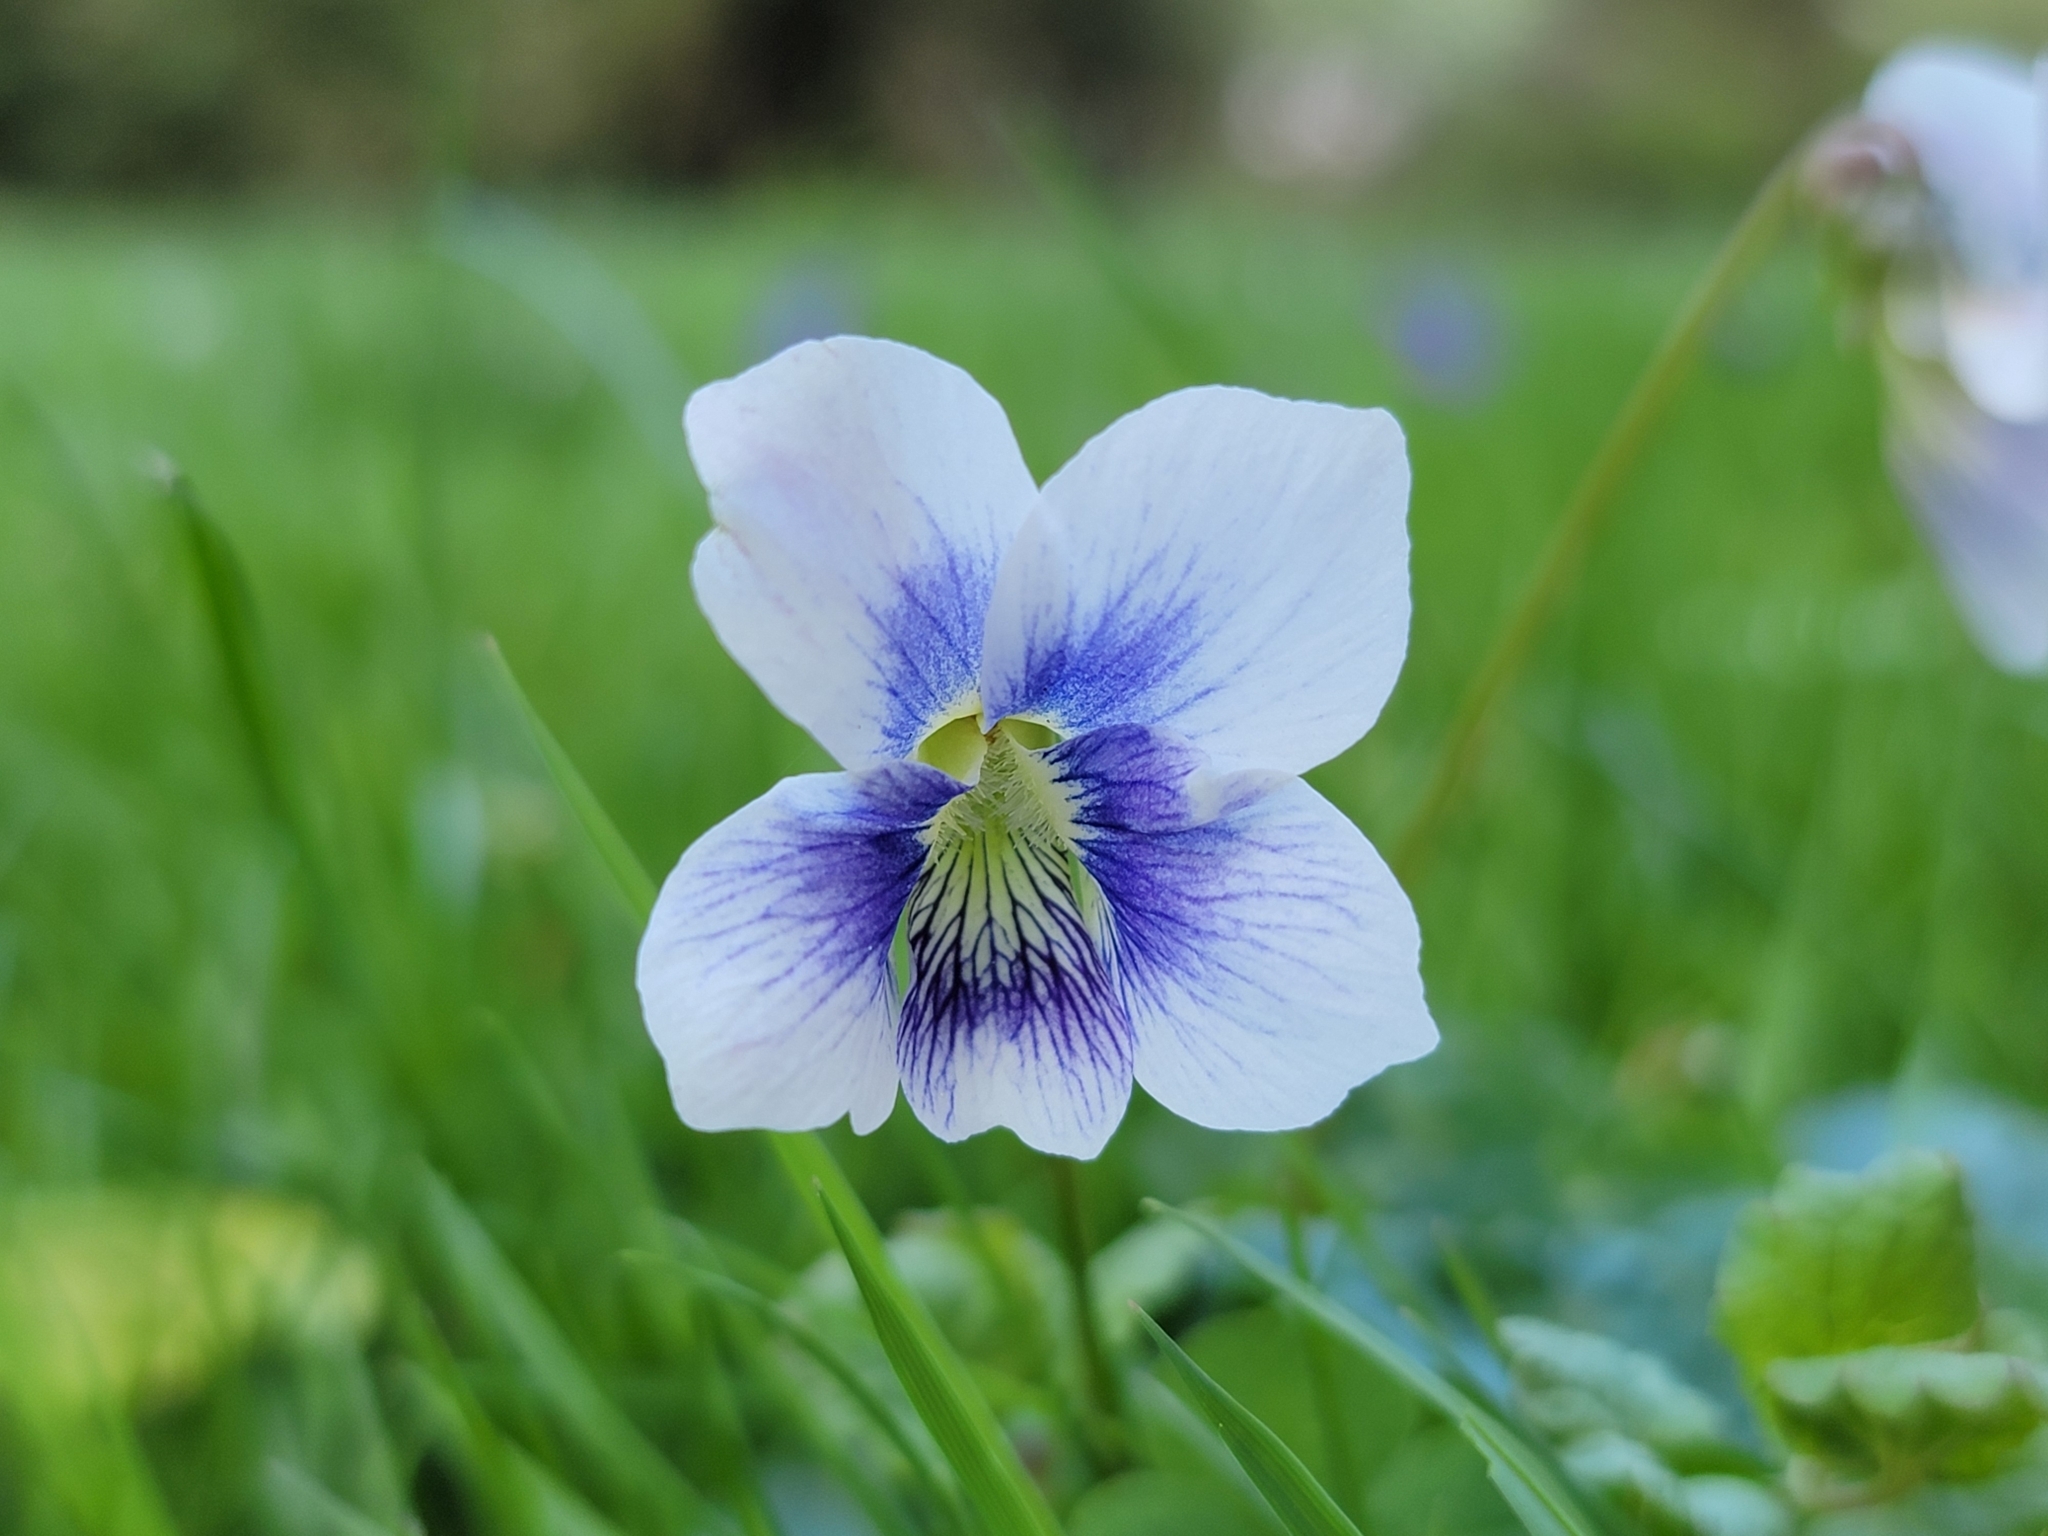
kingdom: Plantae
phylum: Tracheophyta
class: Magnoliopsida
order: Malpighiales
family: Violaceae
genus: Viola
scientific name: Viola sororia
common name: Dooryard violet
